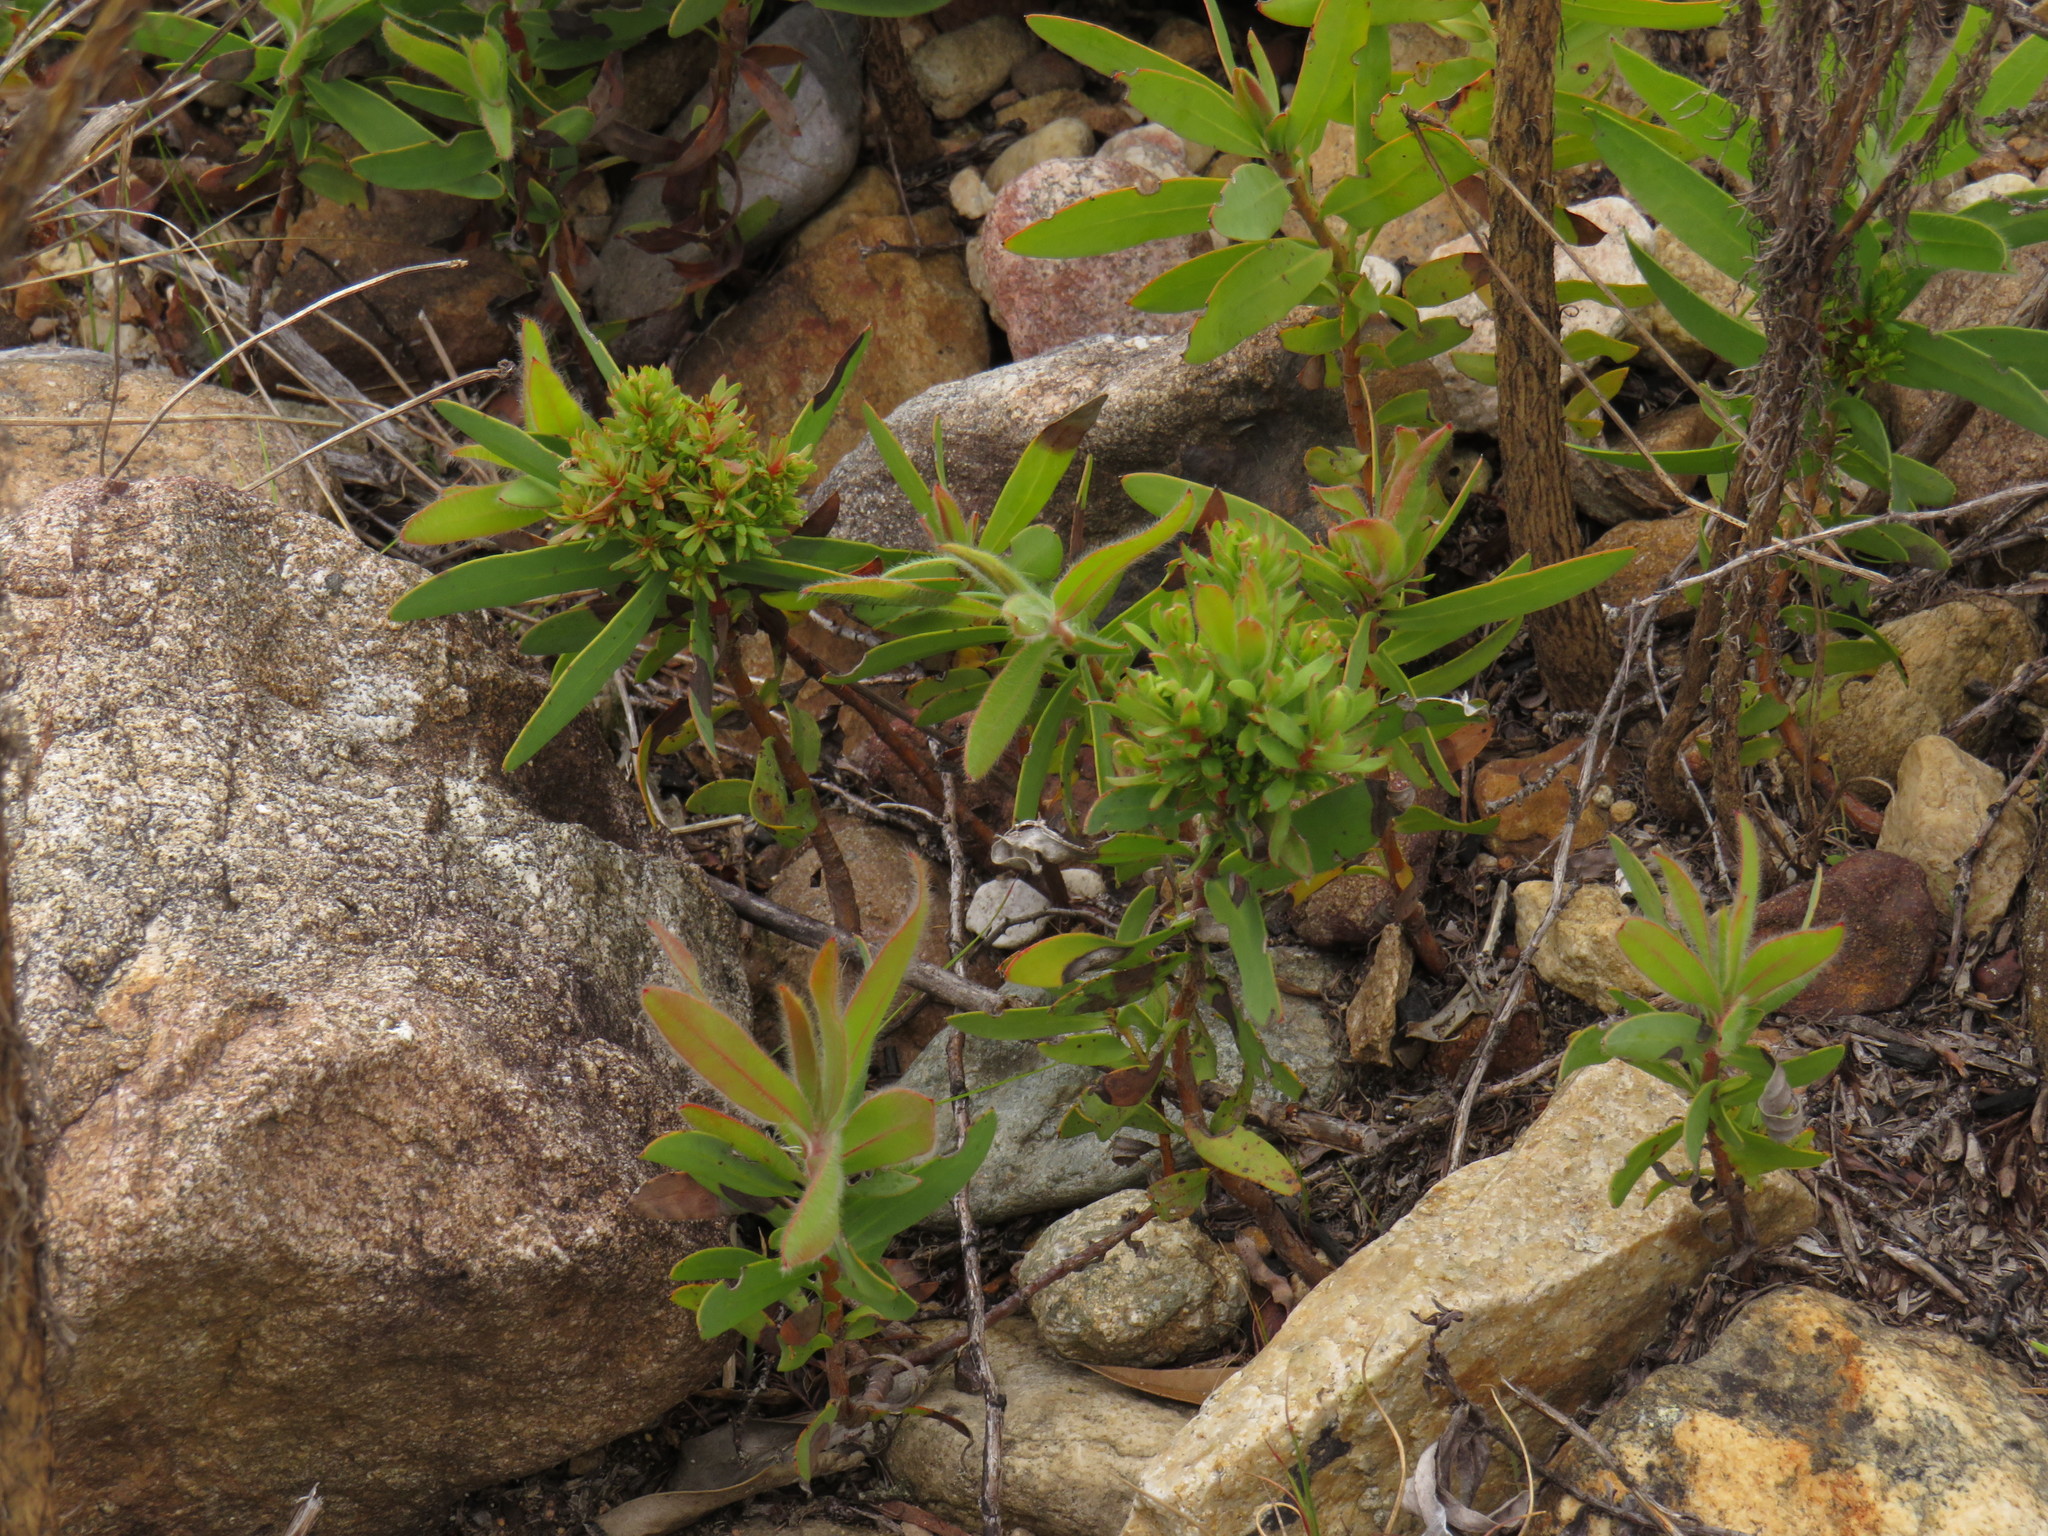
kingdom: Bacteria
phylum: Firmicutes
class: Bacilli
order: Acholeplasmatales
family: Acholeplasmataceae
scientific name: Acholeplasmataceae
